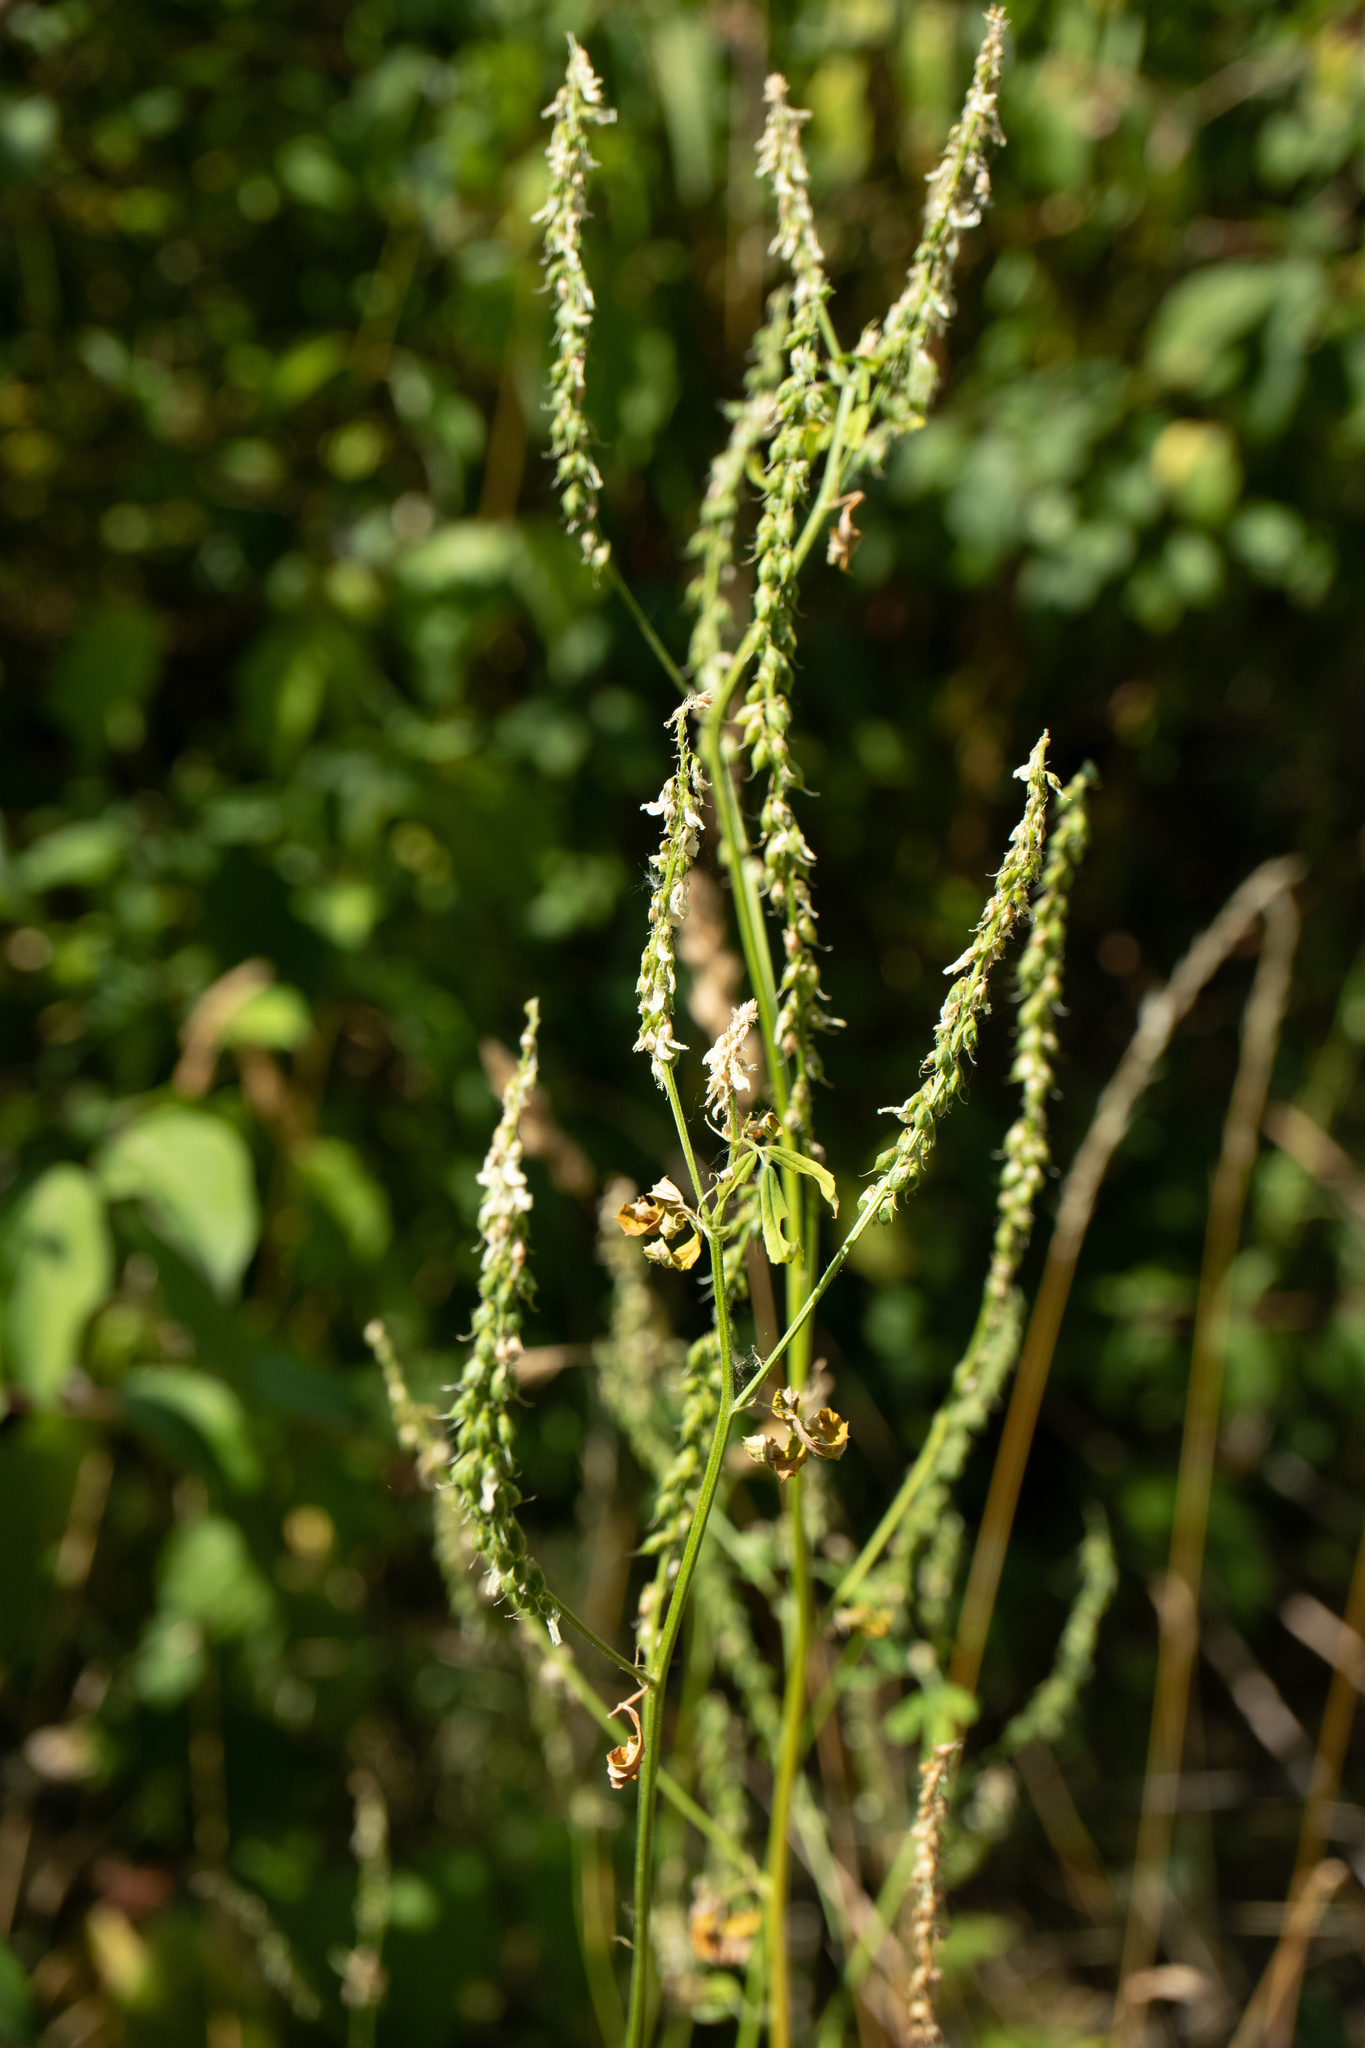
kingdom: Plantae
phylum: Tracheophyta
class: Magnoliopsida
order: Fabales
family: Fabaceae
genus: Melilotus
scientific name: Melilotus officinalis
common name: Sweetclover
